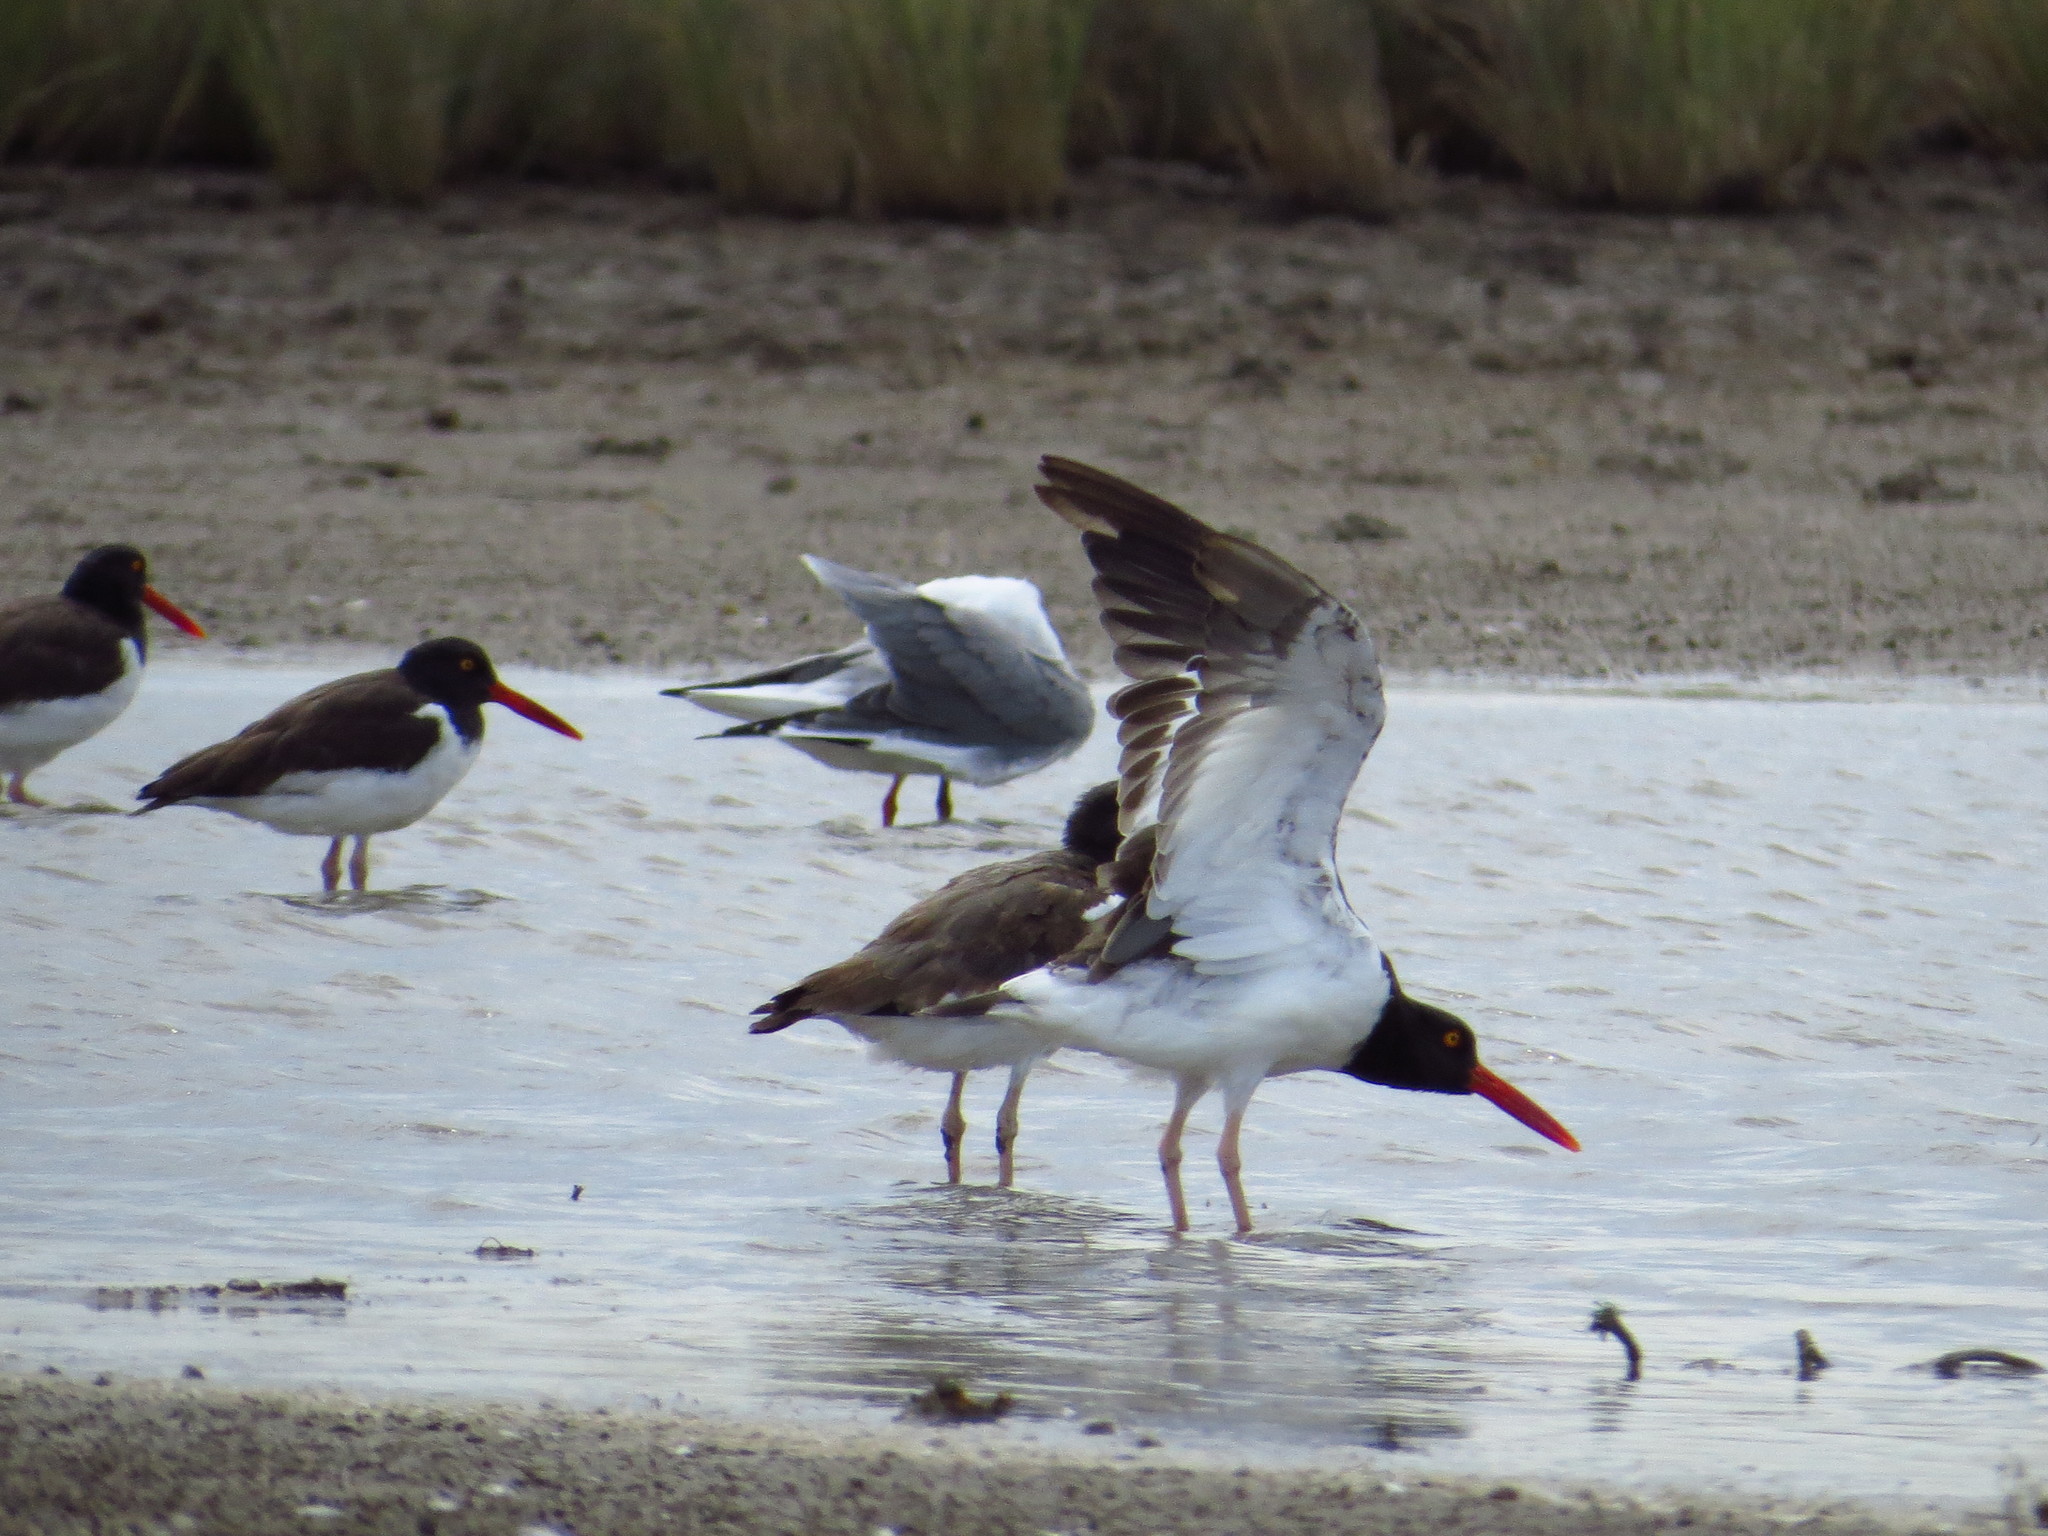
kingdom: Animalia
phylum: Chordata
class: Aves
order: Charadriiformes
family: Haematopodidae
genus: Haematopus
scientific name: Haematopus palliatus
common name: American oystercatcher
